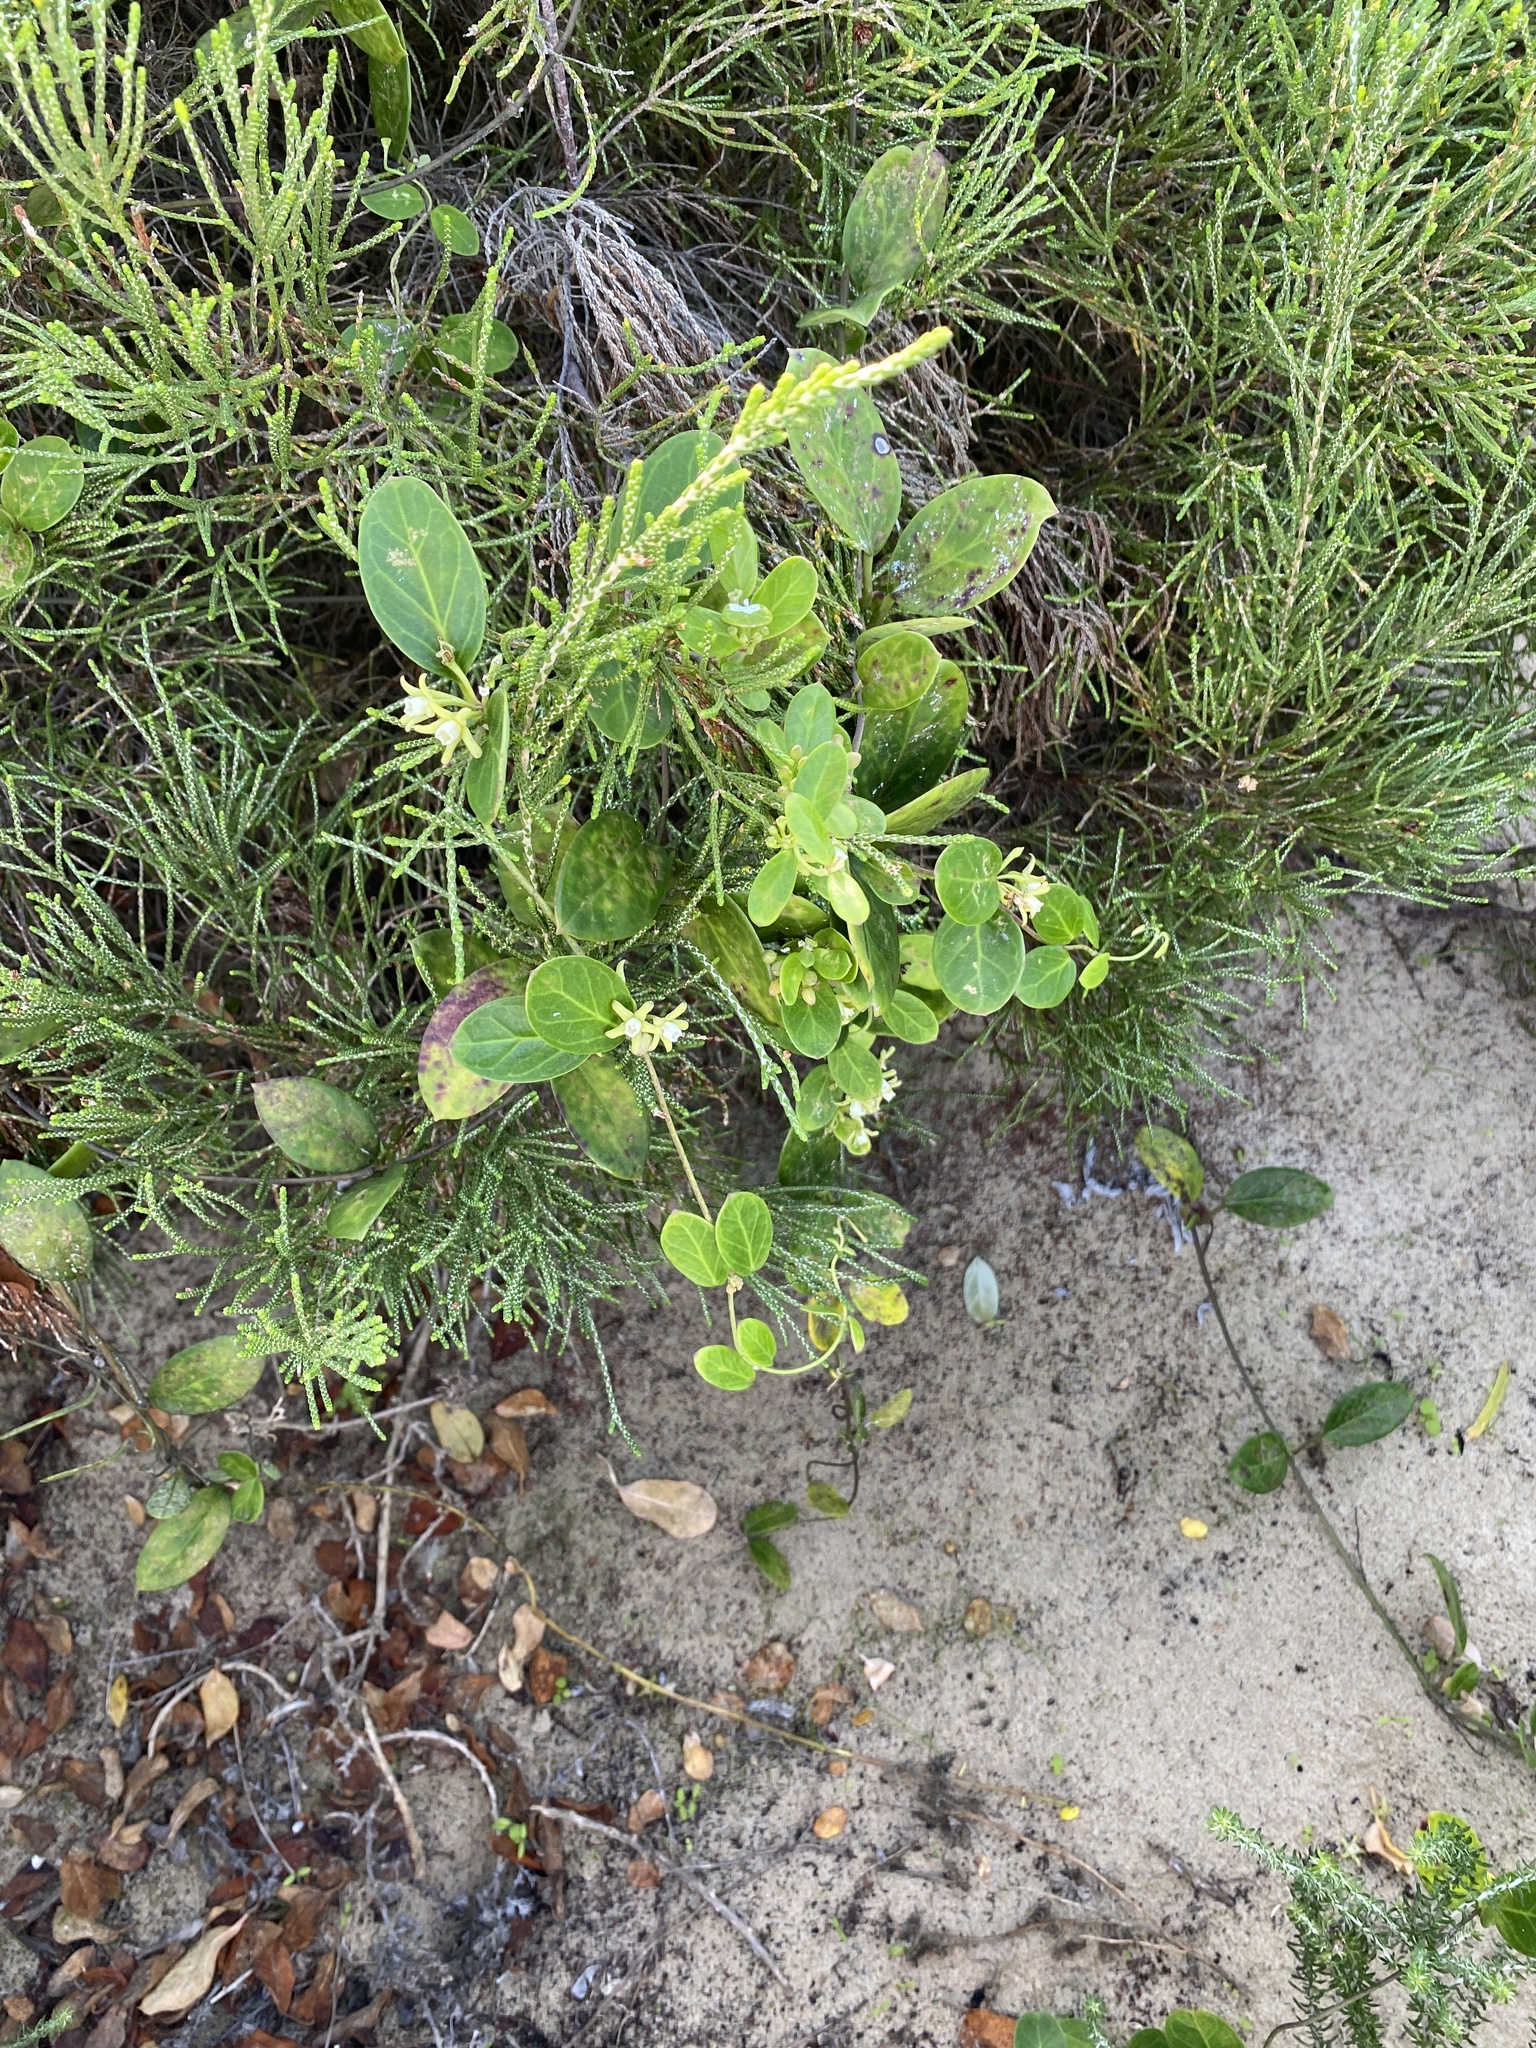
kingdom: Plantae
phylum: Tracheophyta
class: Magnoliopsida
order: Gentianales
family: Apocynaceae
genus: Cynanchum
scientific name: Cynanchum natalitium
